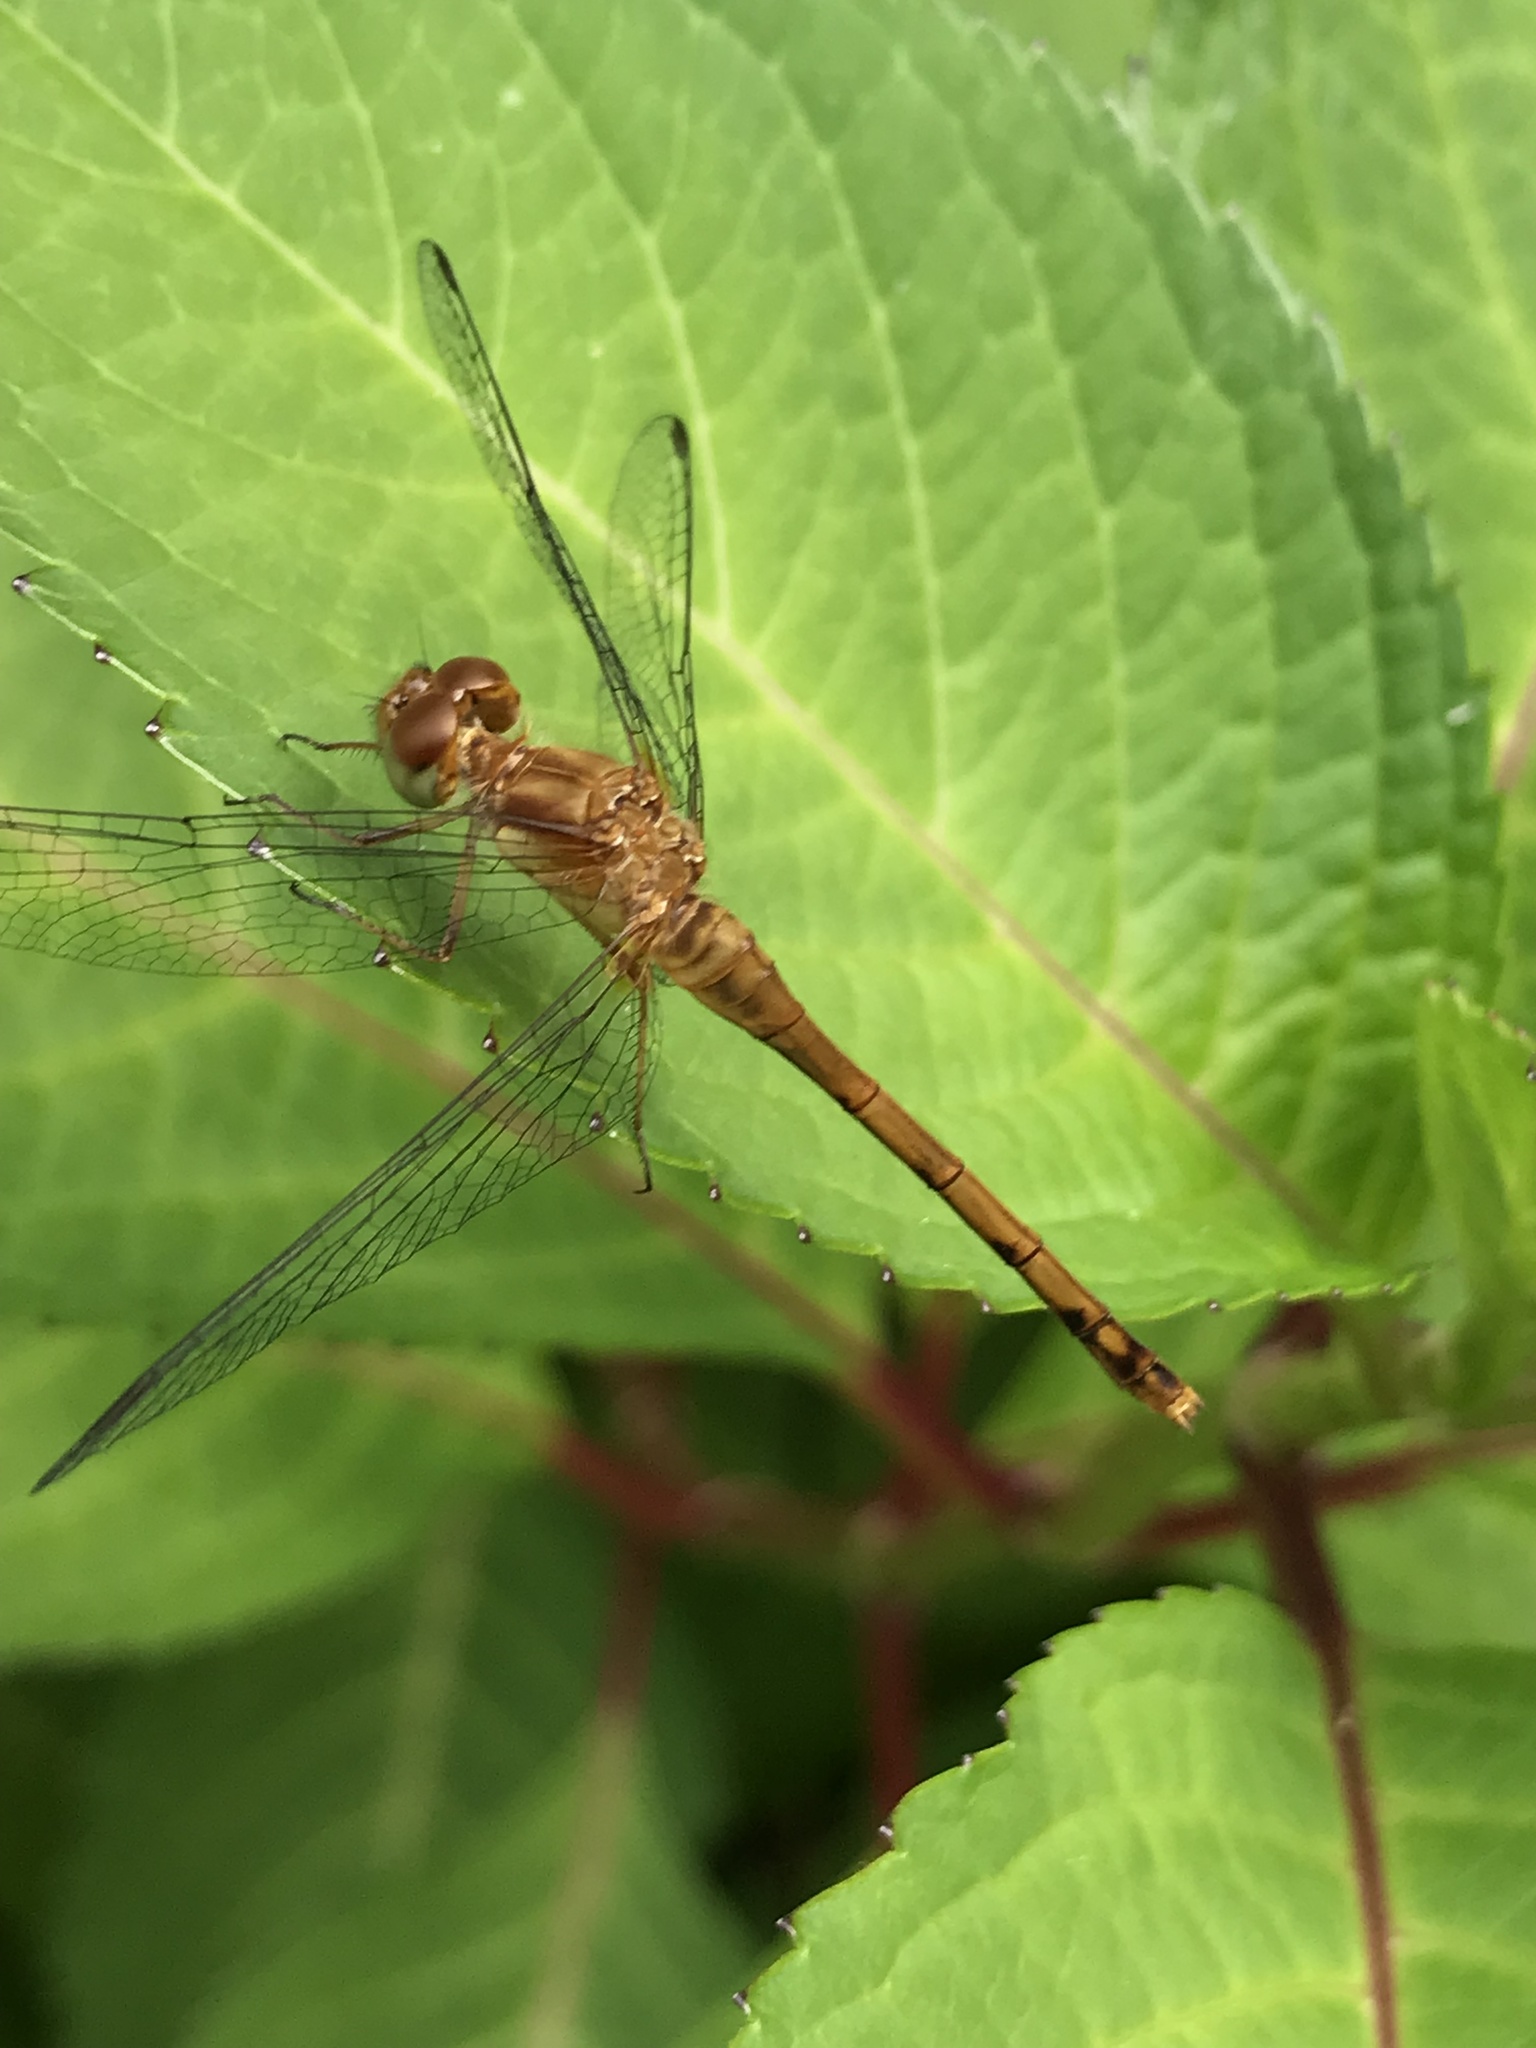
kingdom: Animalia
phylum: Arthropoda
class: Insecta
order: Odonata
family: Libellulidae
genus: Sympetrum
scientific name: Sympetrum vicinum
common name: Autumn meadowhawk
